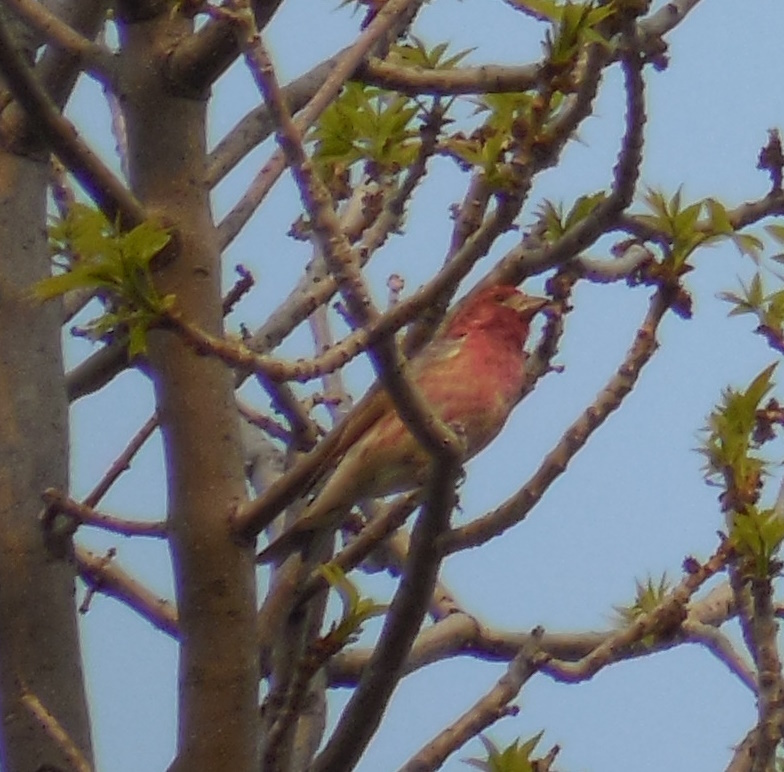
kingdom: Animalia
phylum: Chordata
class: Aves
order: Passeriformes
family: Fringillidae
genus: Haemorhous
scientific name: Haemorhous purpureus
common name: Purple finch
